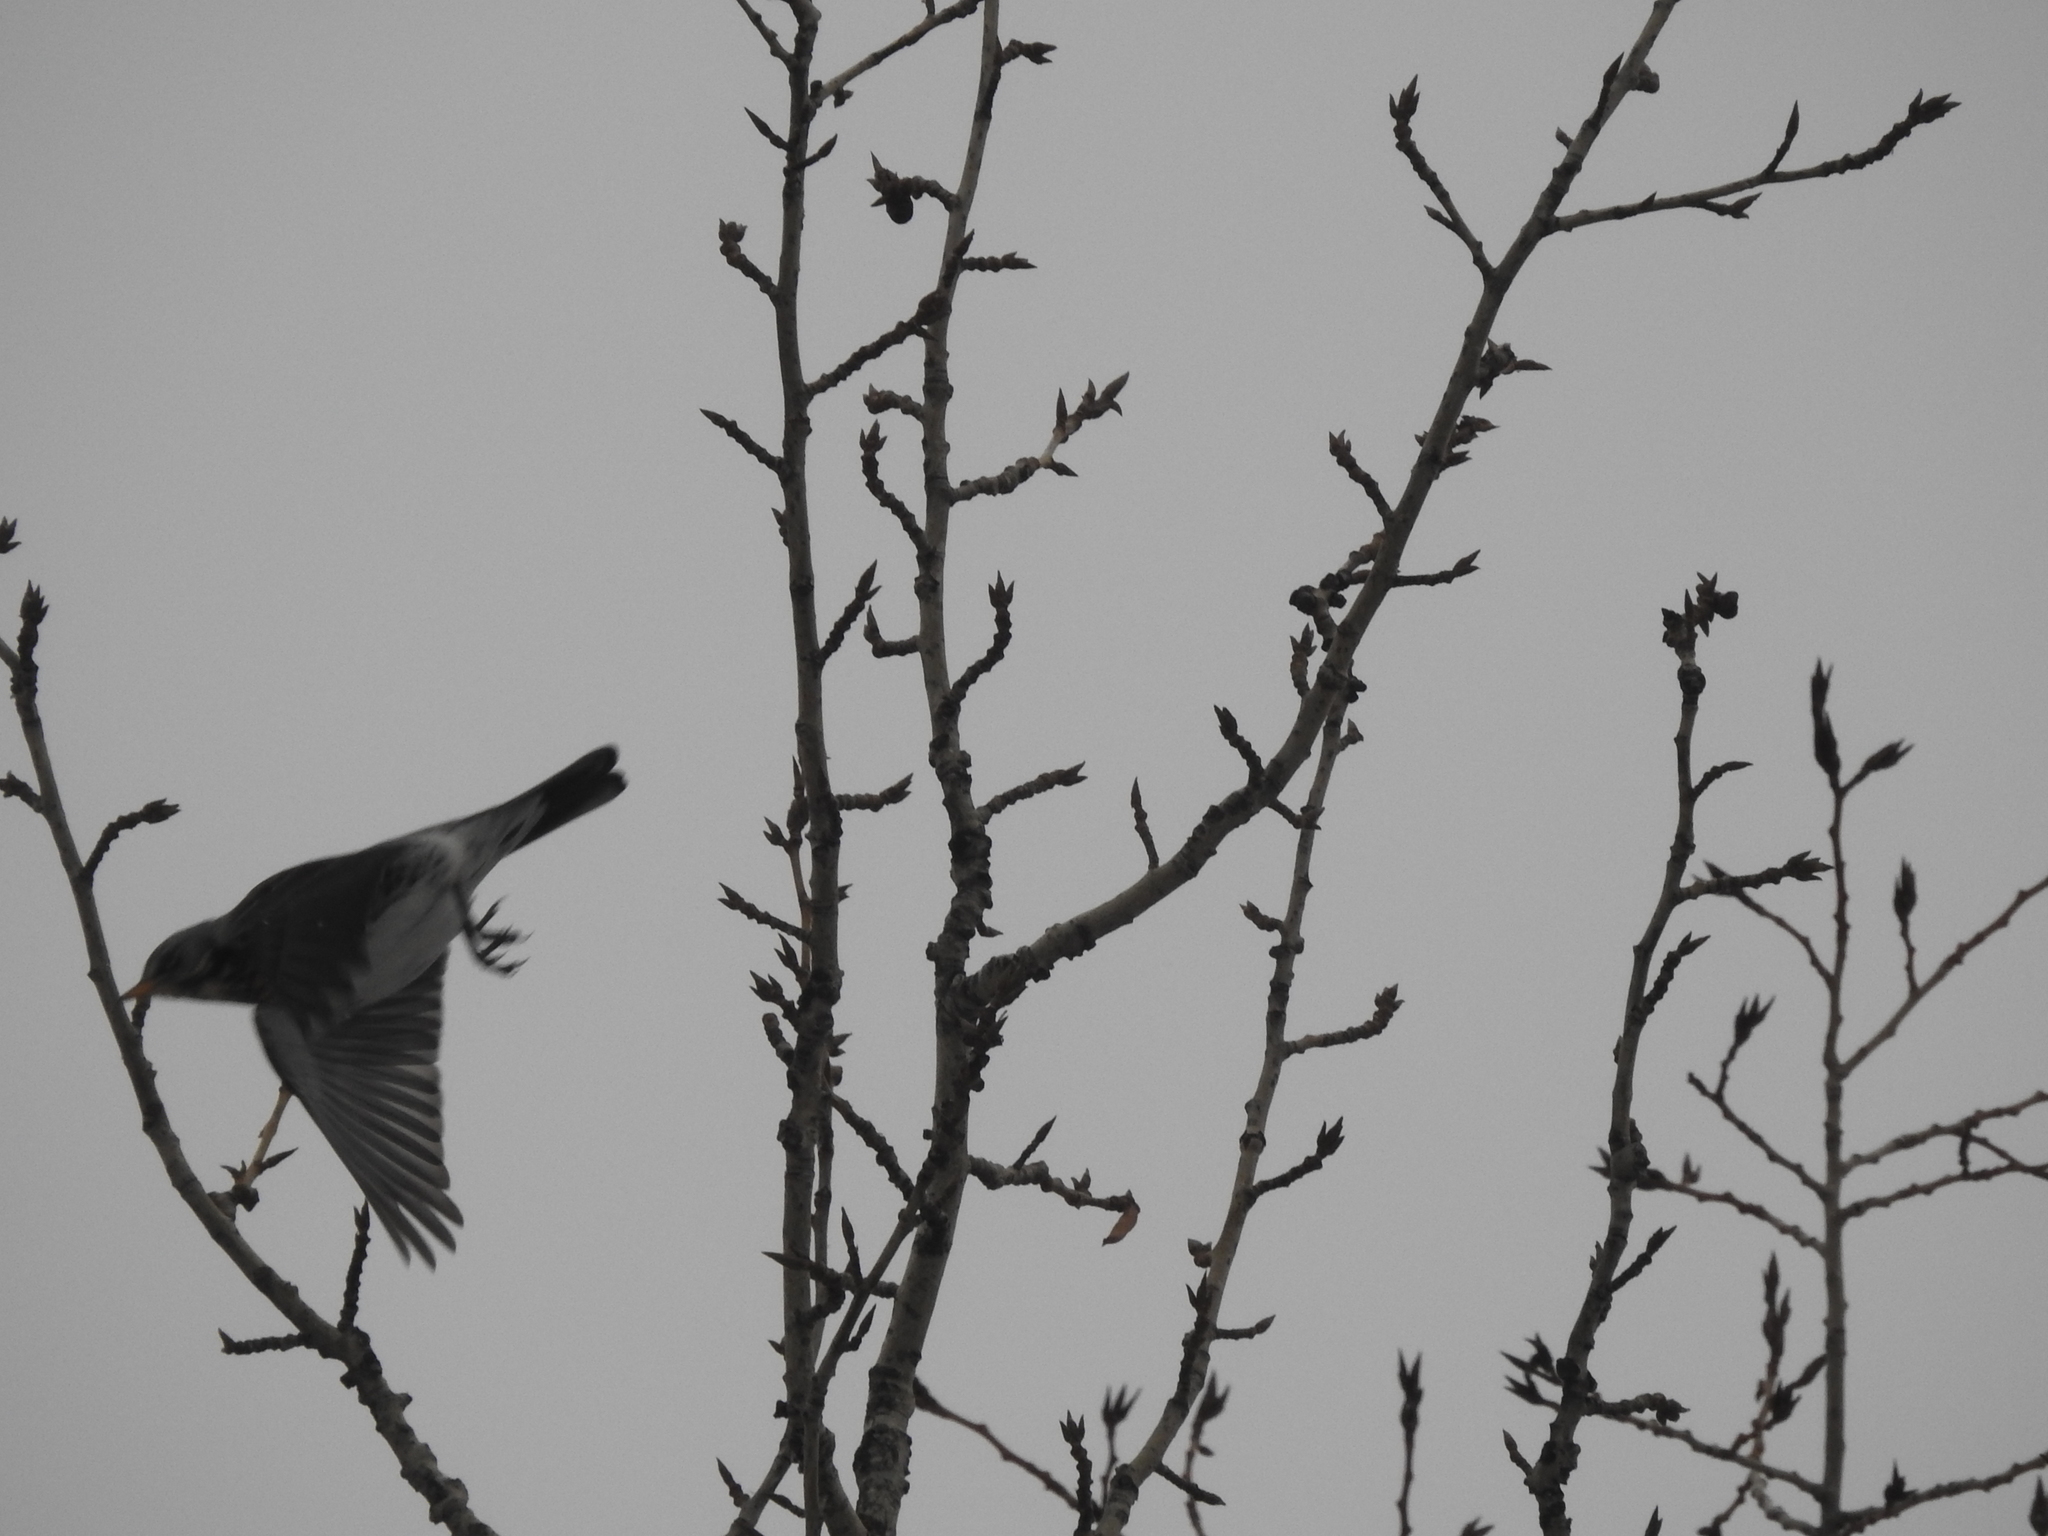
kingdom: Animalia
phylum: Chordata
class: Aves
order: Passeriformes
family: Turdidae
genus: Turdus
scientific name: Turdus pilaris
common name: Fieldfare
